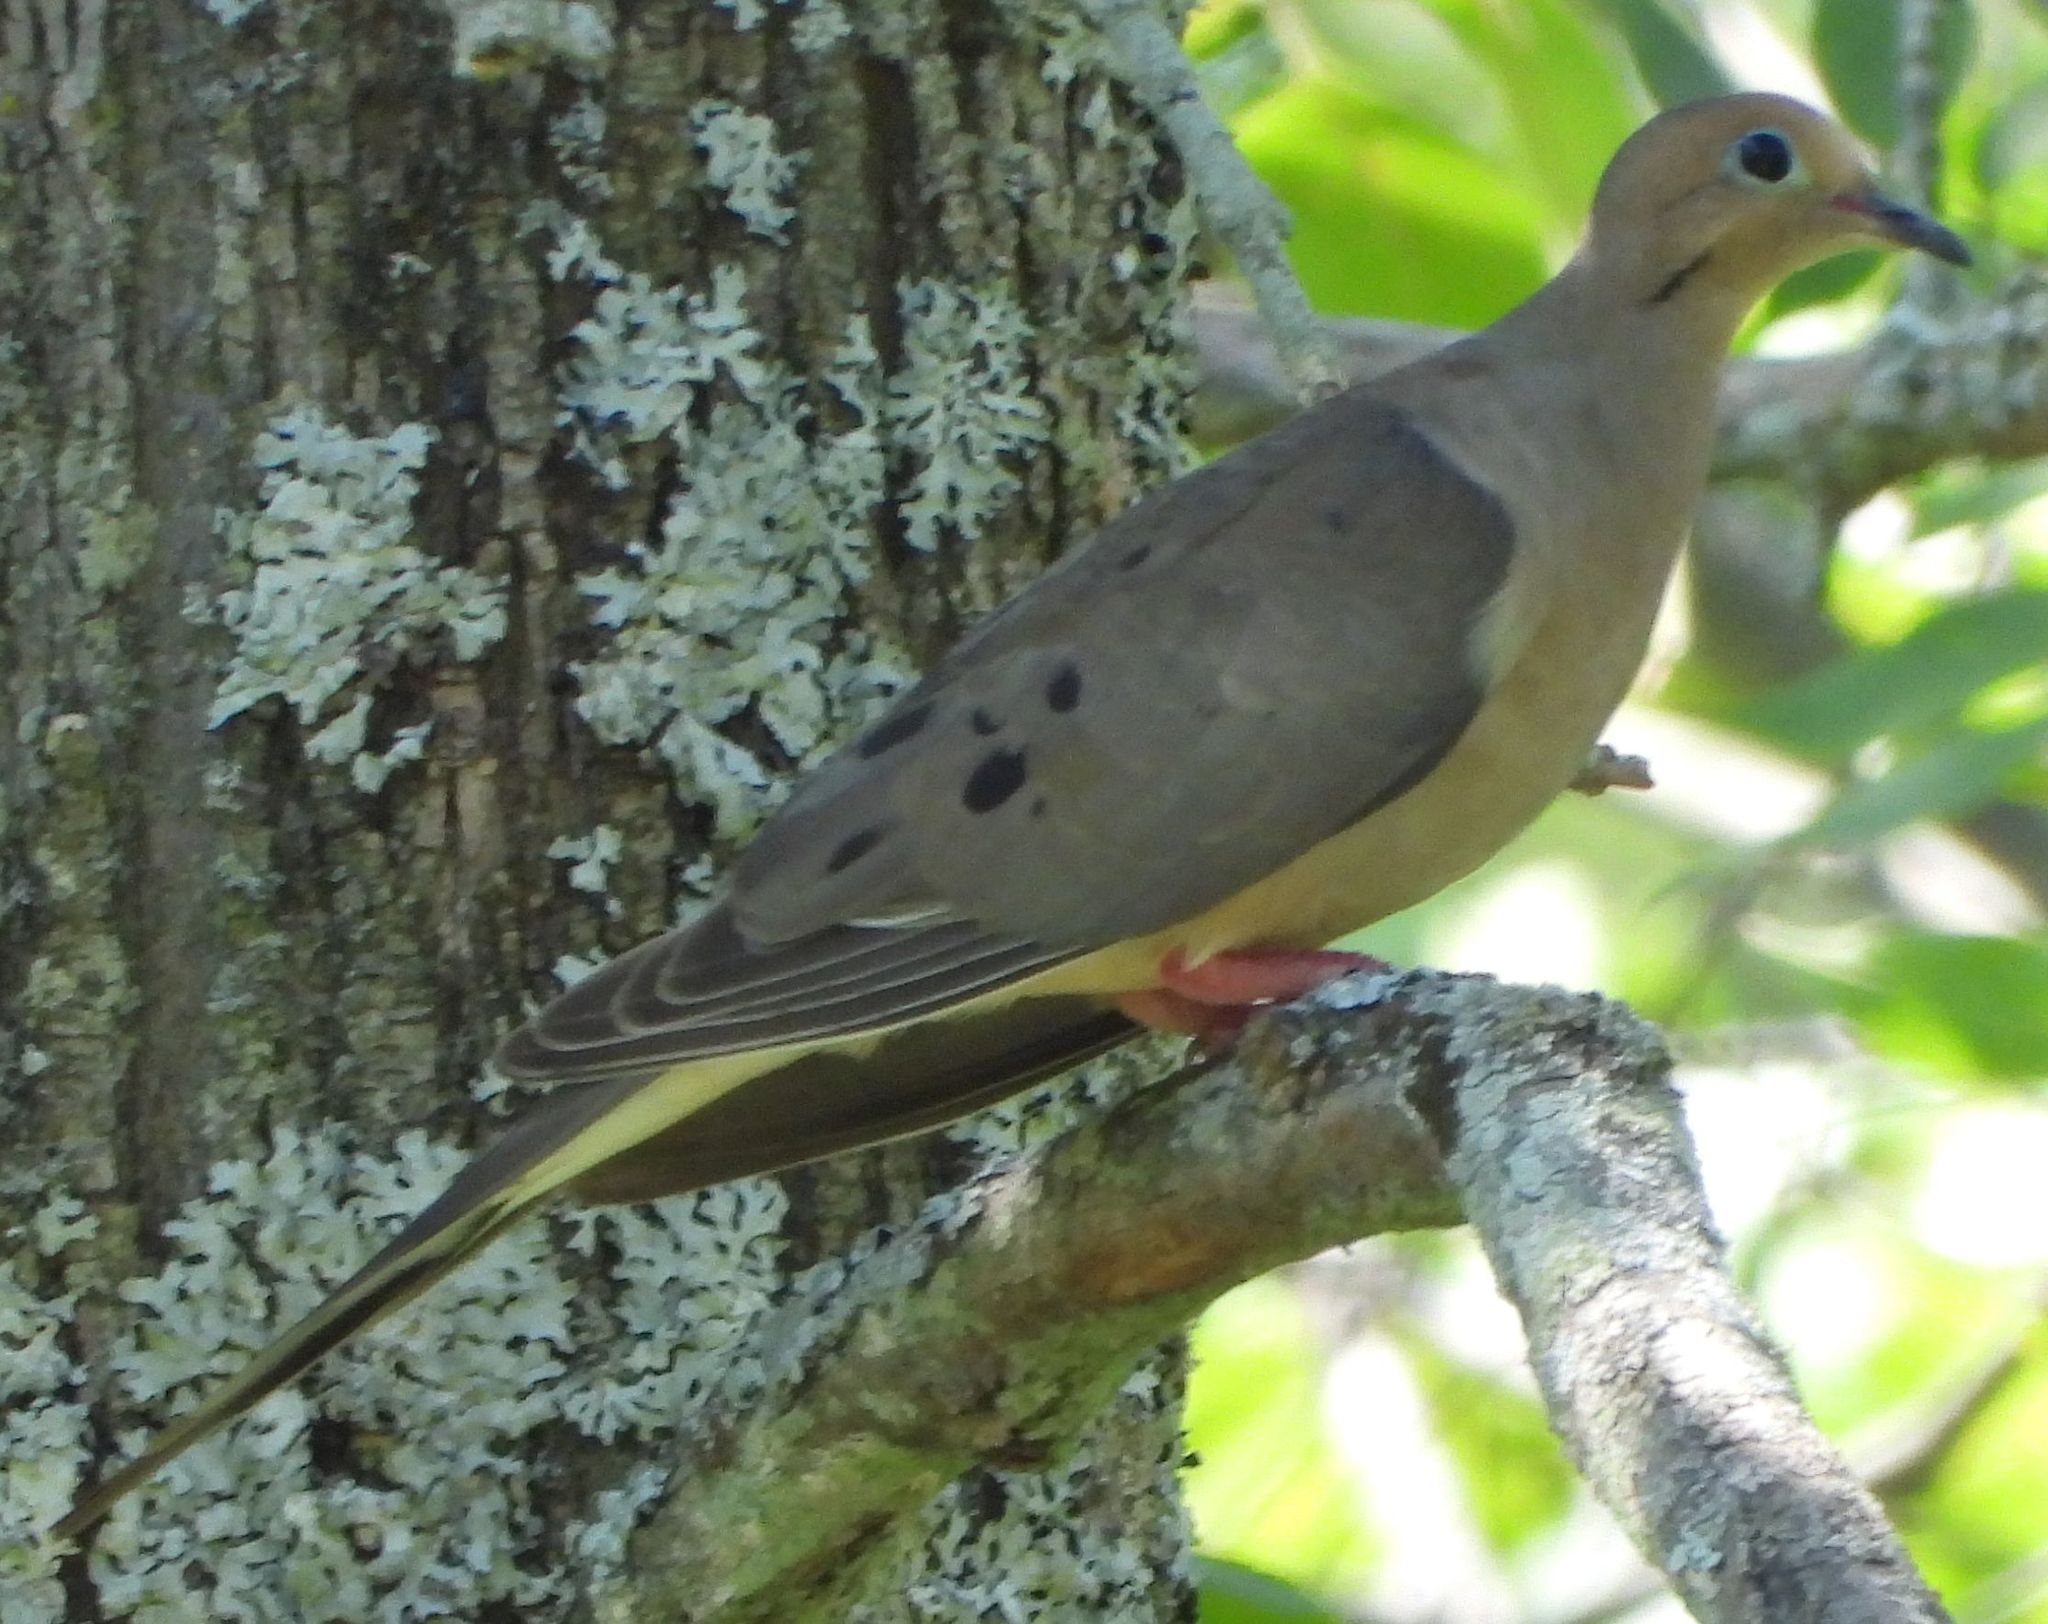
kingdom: Animalia
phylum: Chordata
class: Aves
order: Columbiformes
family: Columbidae
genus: Zenaida
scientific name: Zenaida macroura
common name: Mourning dove
